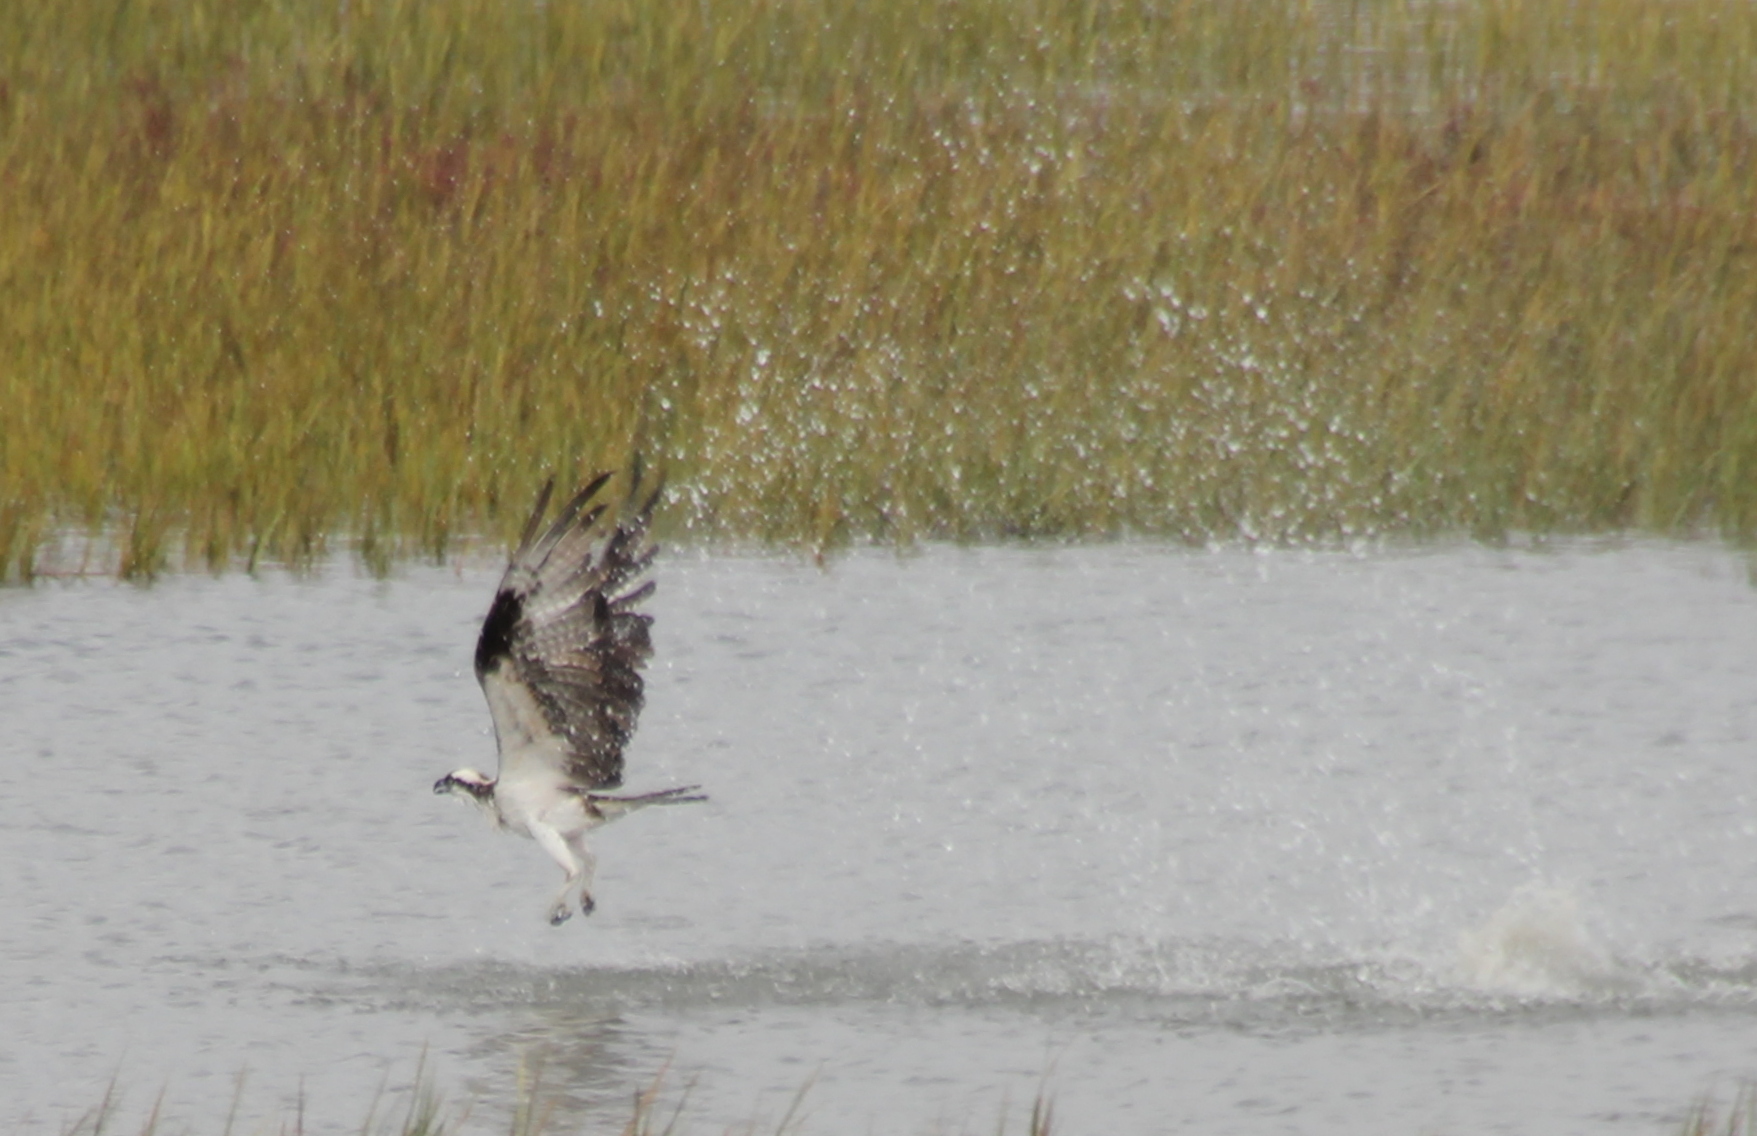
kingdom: Animalia
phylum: Chordata
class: Aves
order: Accipitriformes
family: Pandionidae
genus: Pandion
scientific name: Pandion haliaetus
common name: Osprey
